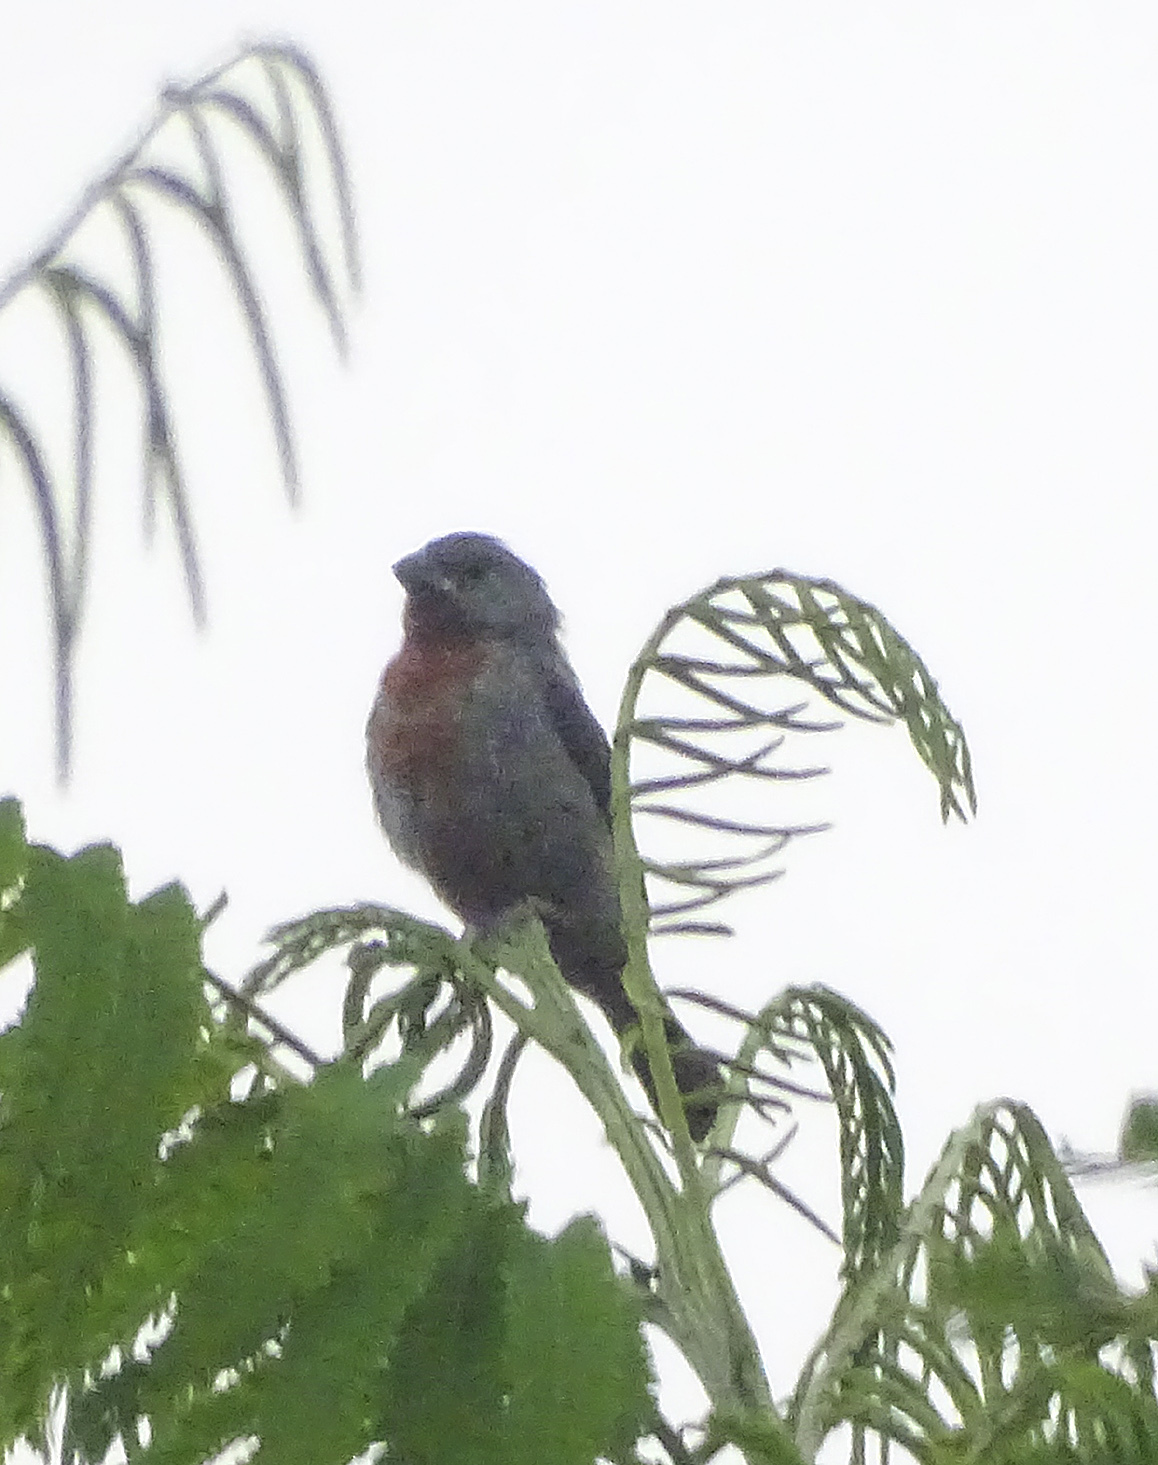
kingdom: Animalia
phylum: Chordata
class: Aves
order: Passeriformes
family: Thraupidae
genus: Sporophila
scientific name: Sporophila castaneiventris
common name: Chestnut-bellied seedeater
